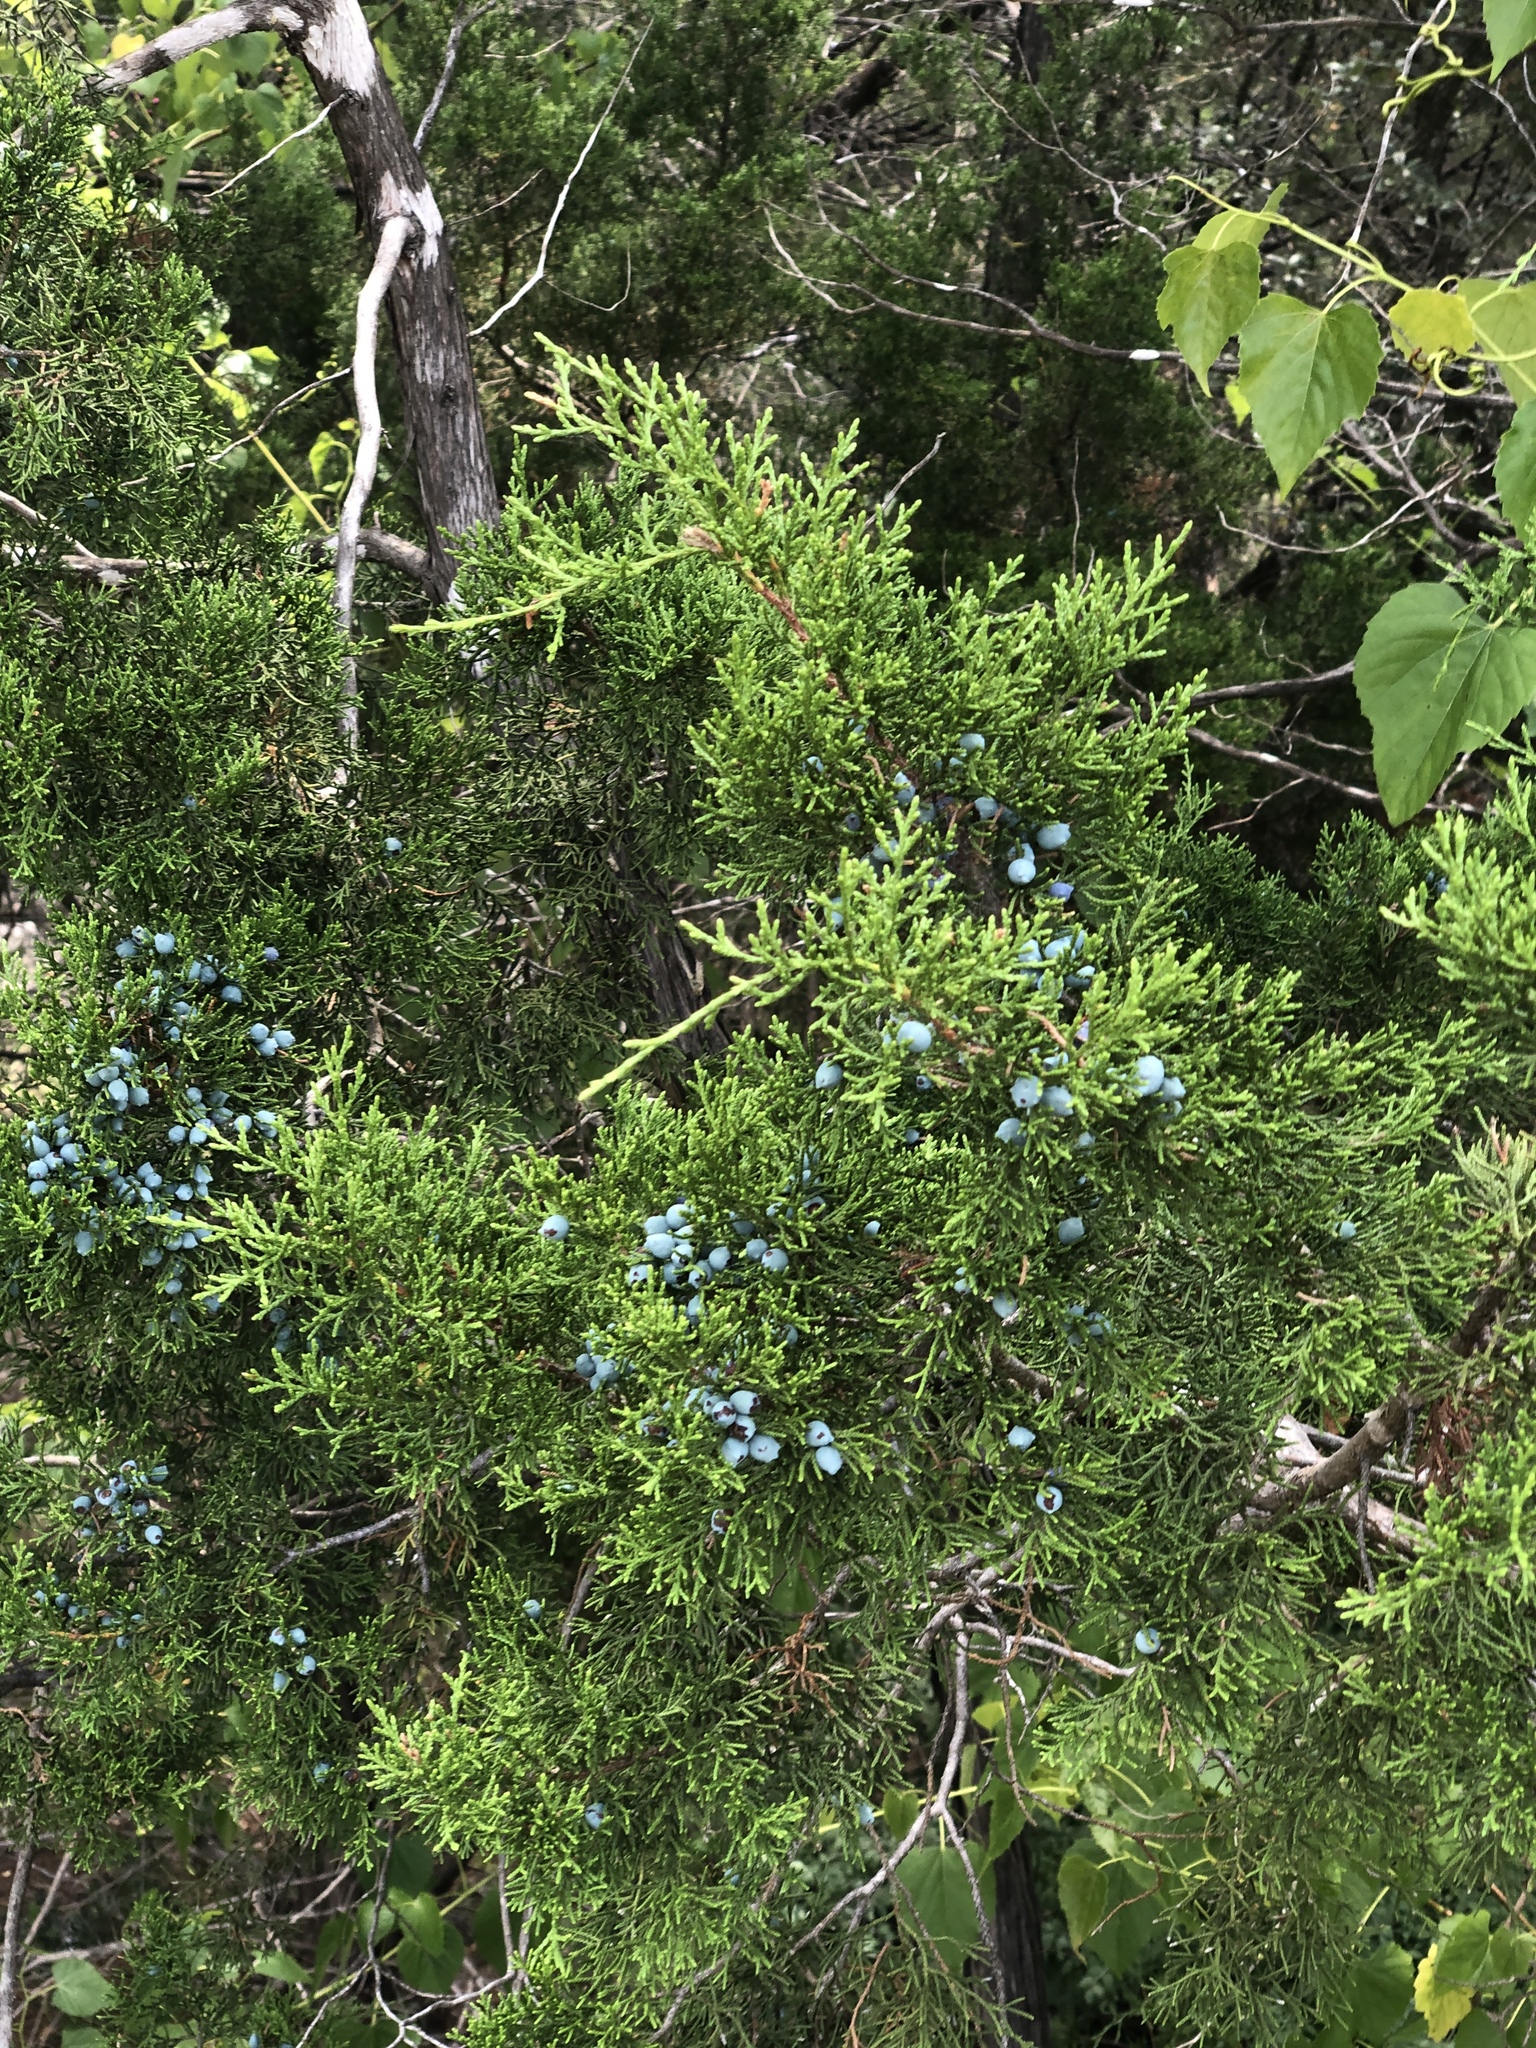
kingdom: Plantae
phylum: Tracheophyta
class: Pinopsida
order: Pinales
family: Cupressaceae
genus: Juniperus
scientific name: Juniperus ashei
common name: Mexican juniper
